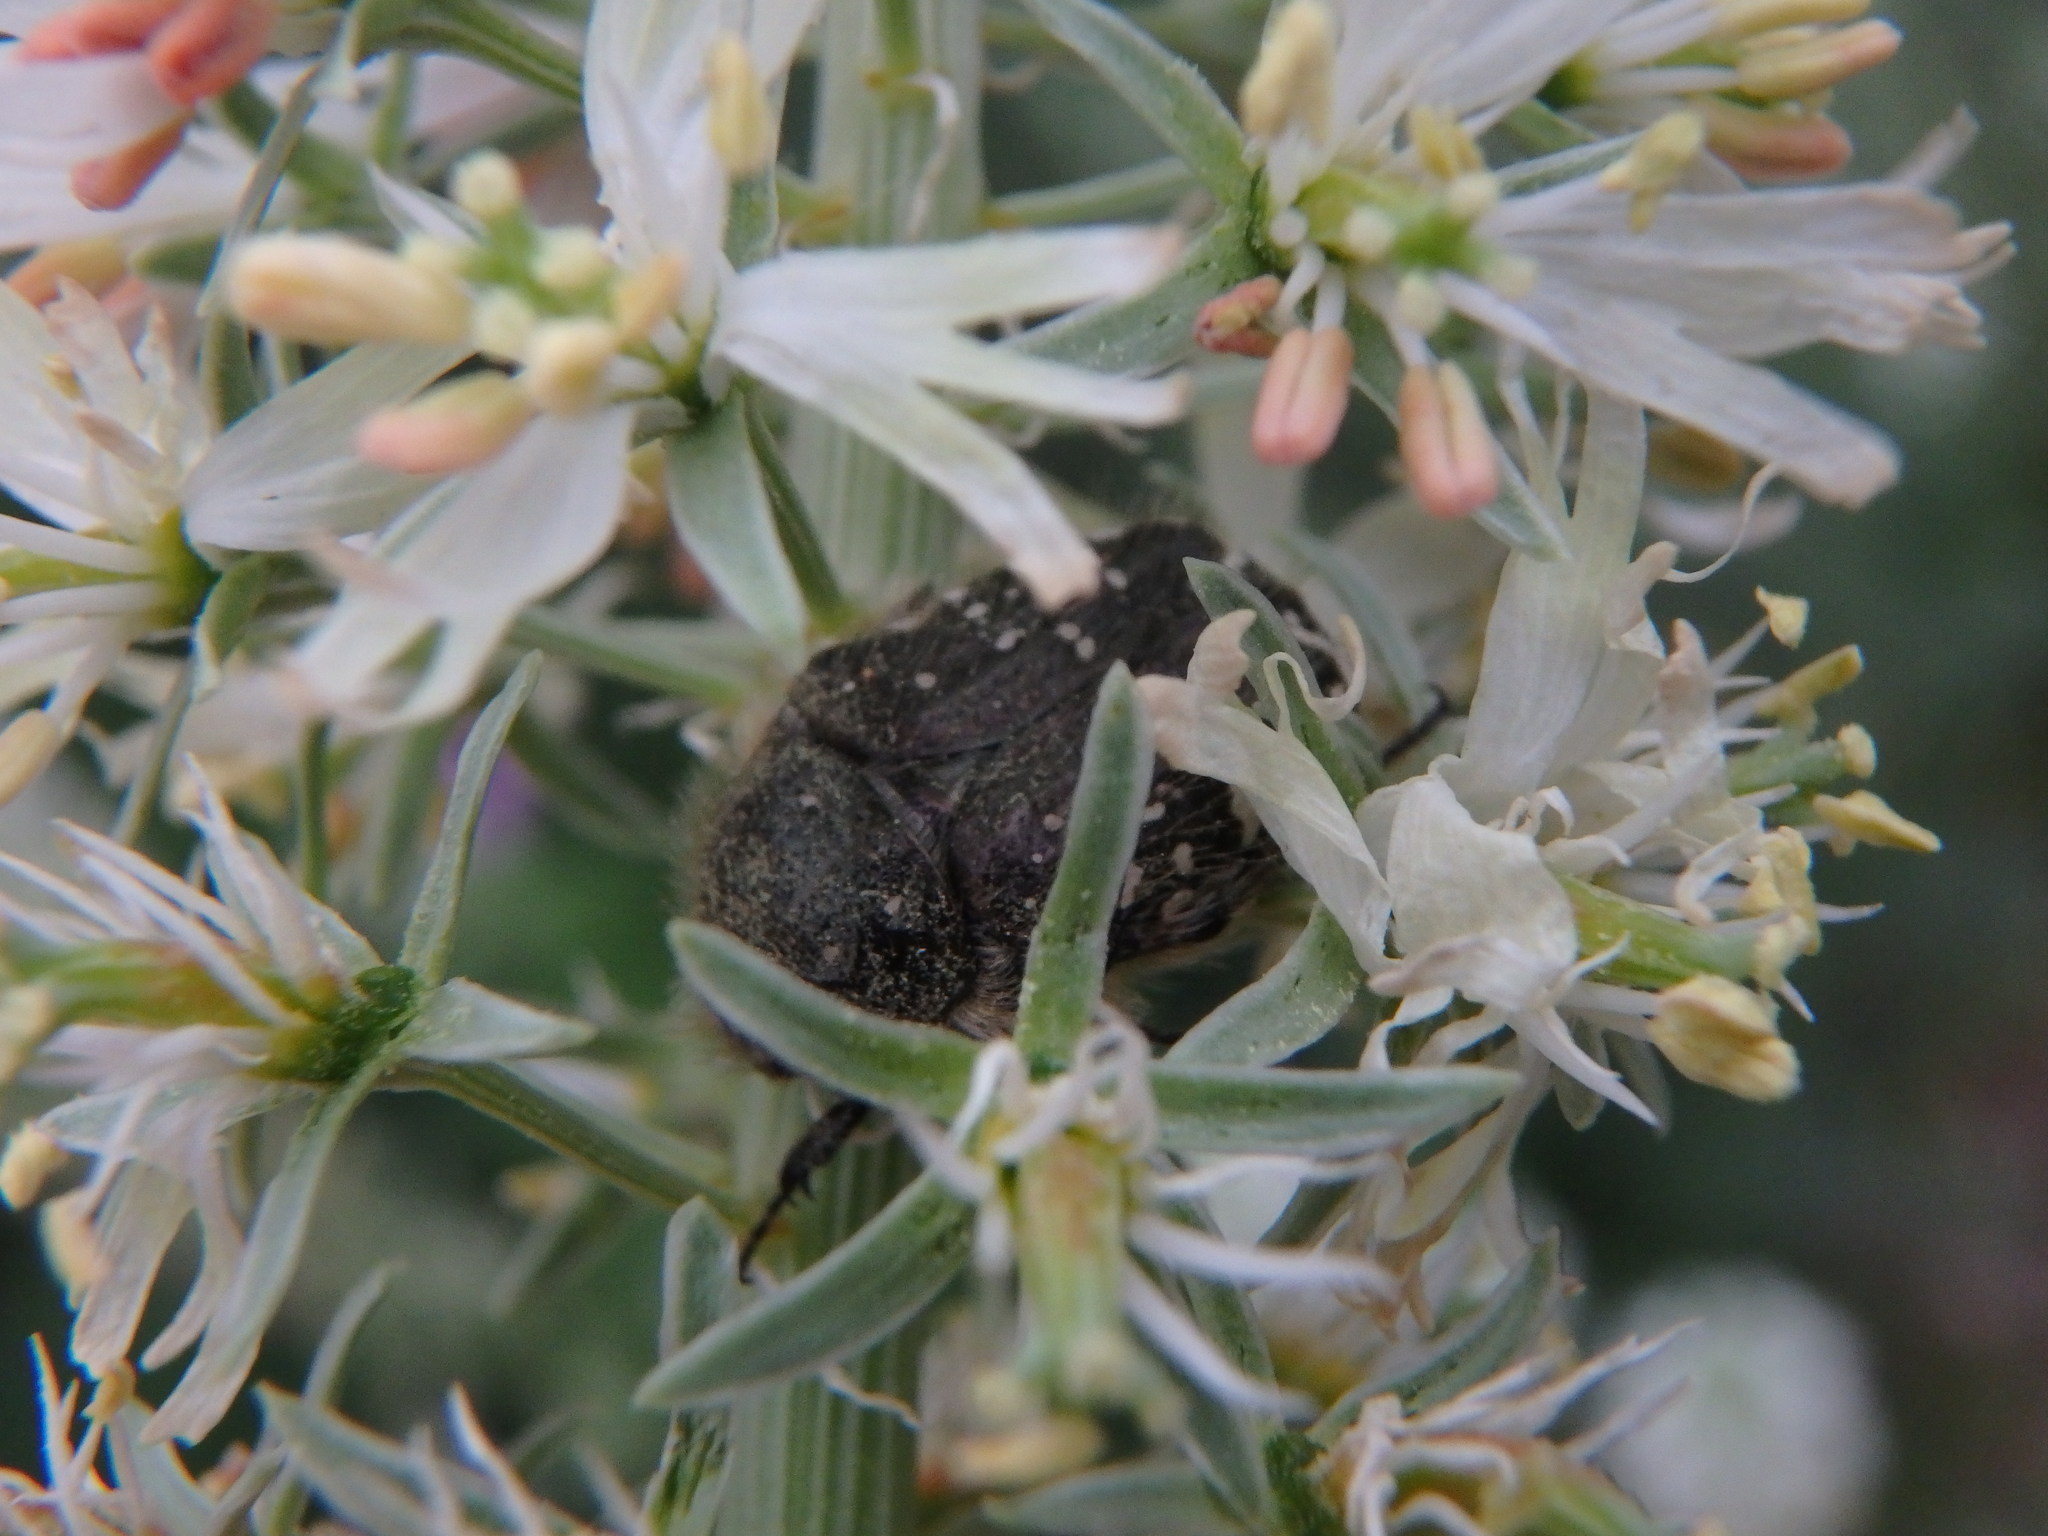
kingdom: Animalia
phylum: Arthropoda
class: Insecta
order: Coleoptera
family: Scarabaeidae
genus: Oxythyrea
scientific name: Oxythyrea funesta
